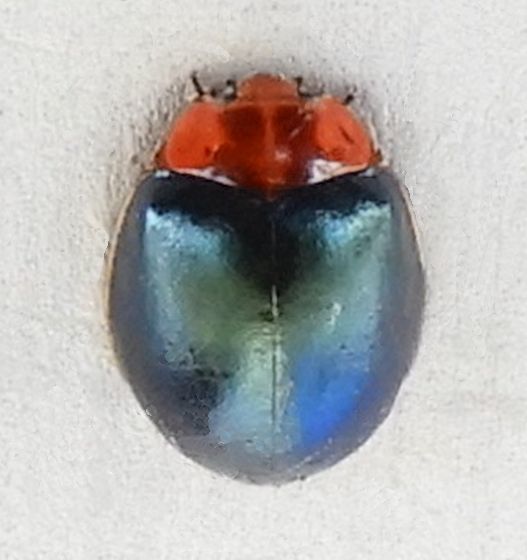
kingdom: Animalia
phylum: Arthropoda
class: Insecta
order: Coleoptera
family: Coccinellidae
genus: Neoharmonia
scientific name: Neoharmonia venusta
